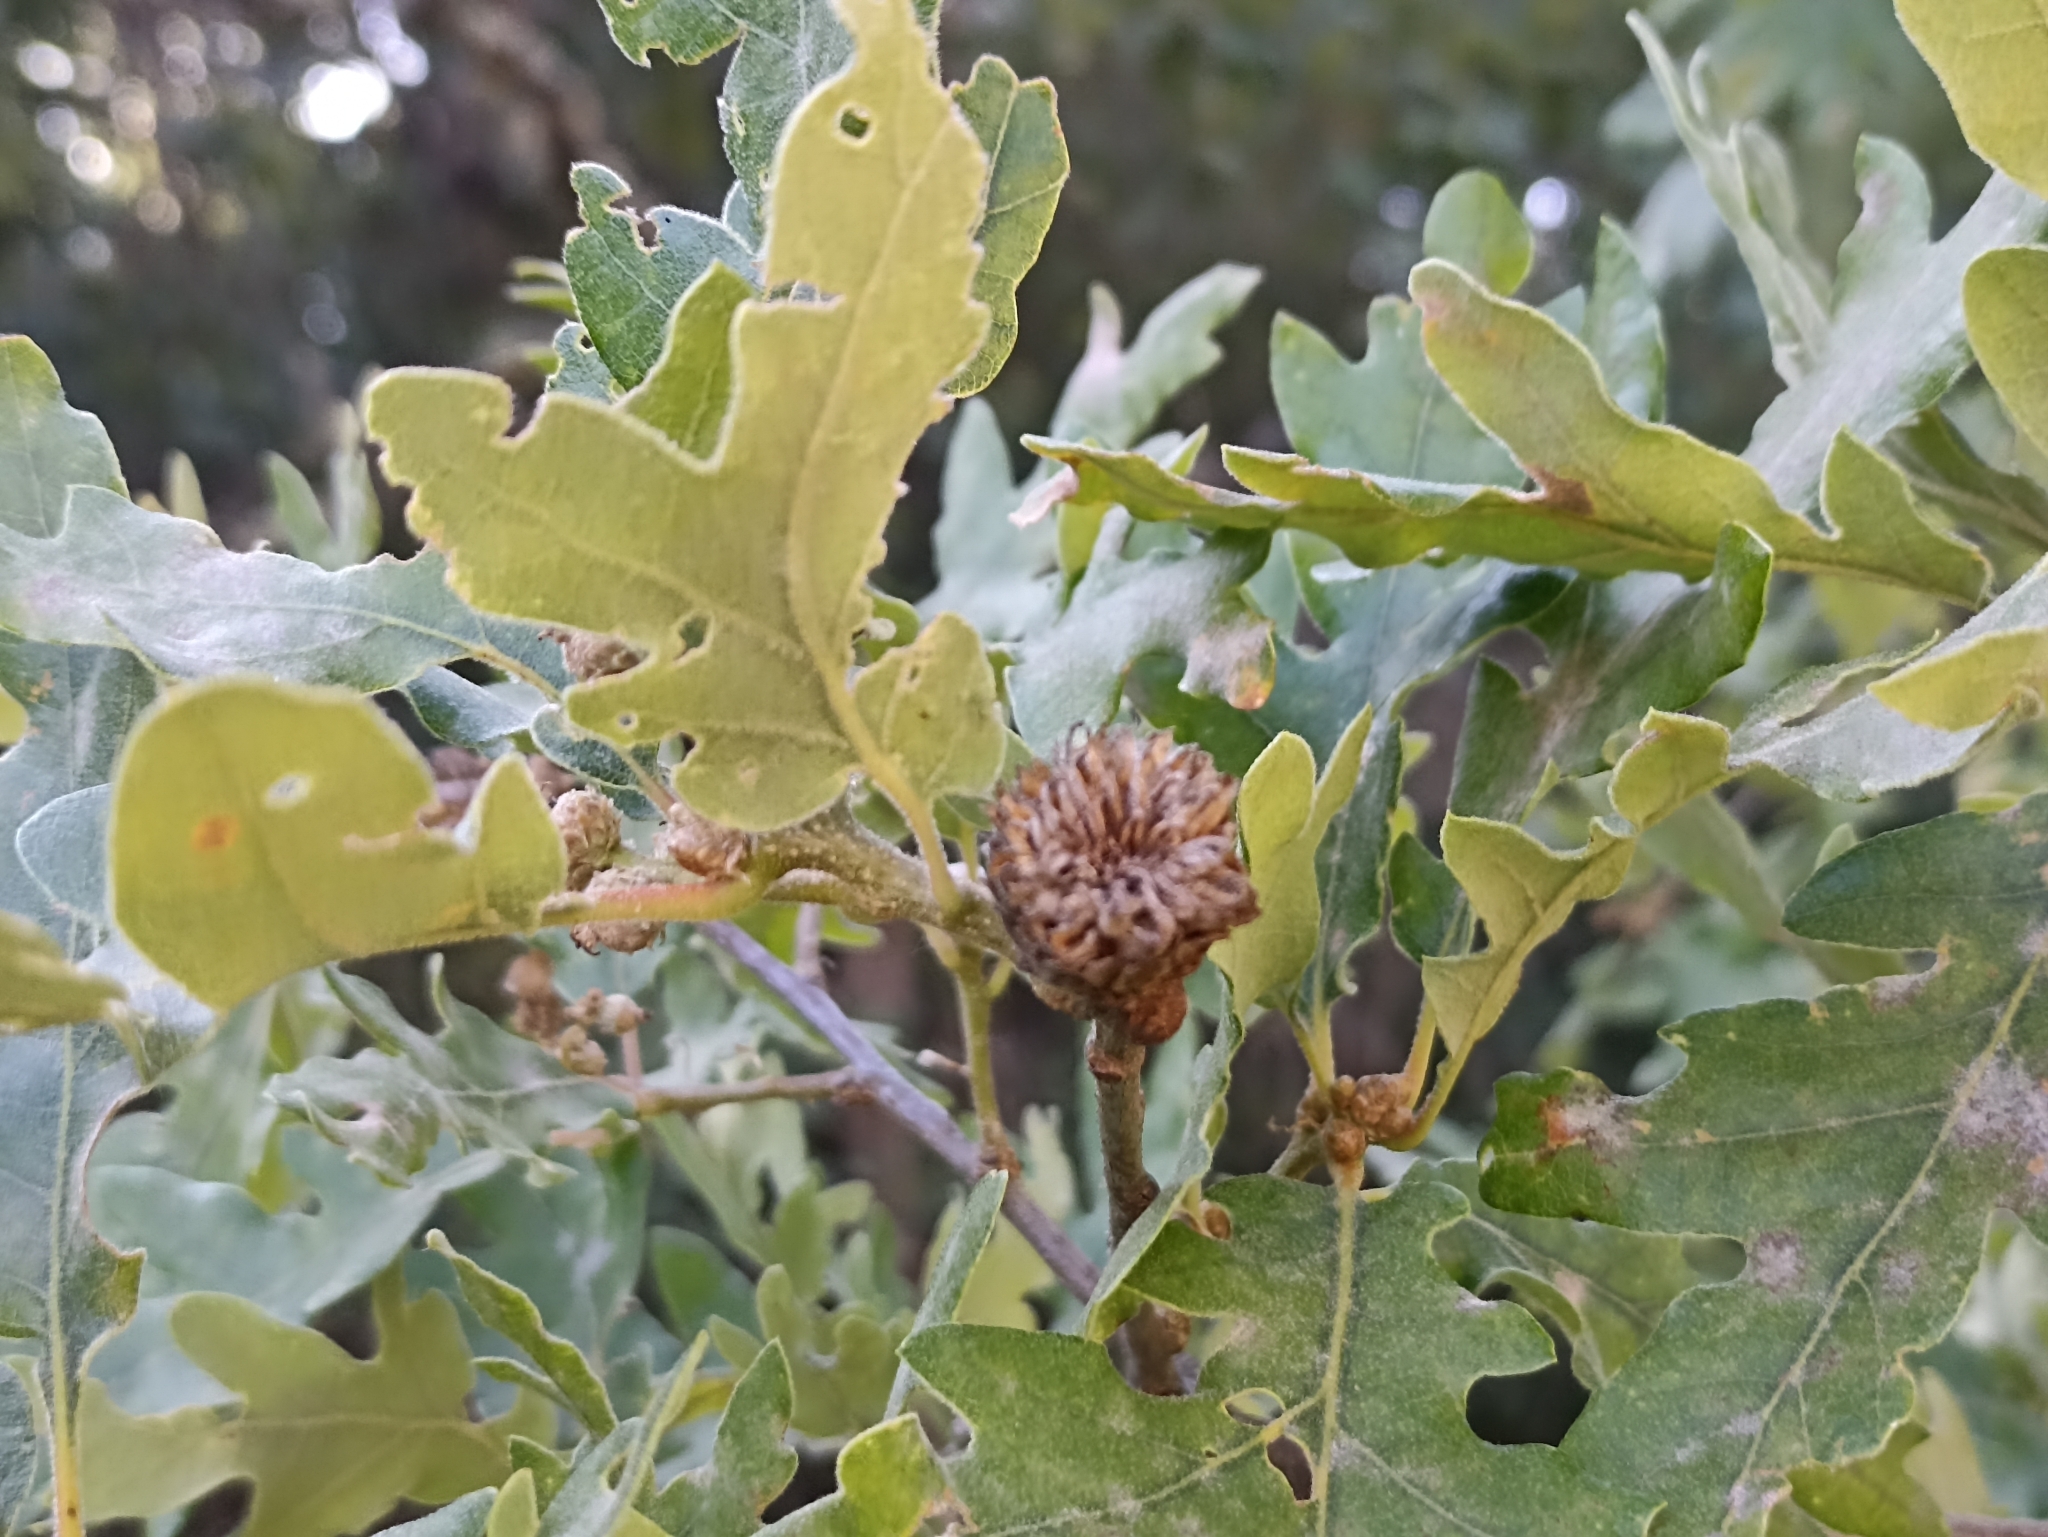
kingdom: Animalia
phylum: Arthropoda
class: Insecta
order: Hymenoptera
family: Cynipidae
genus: Andricus
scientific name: Andricus foecundatrix
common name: Artichoke gall
